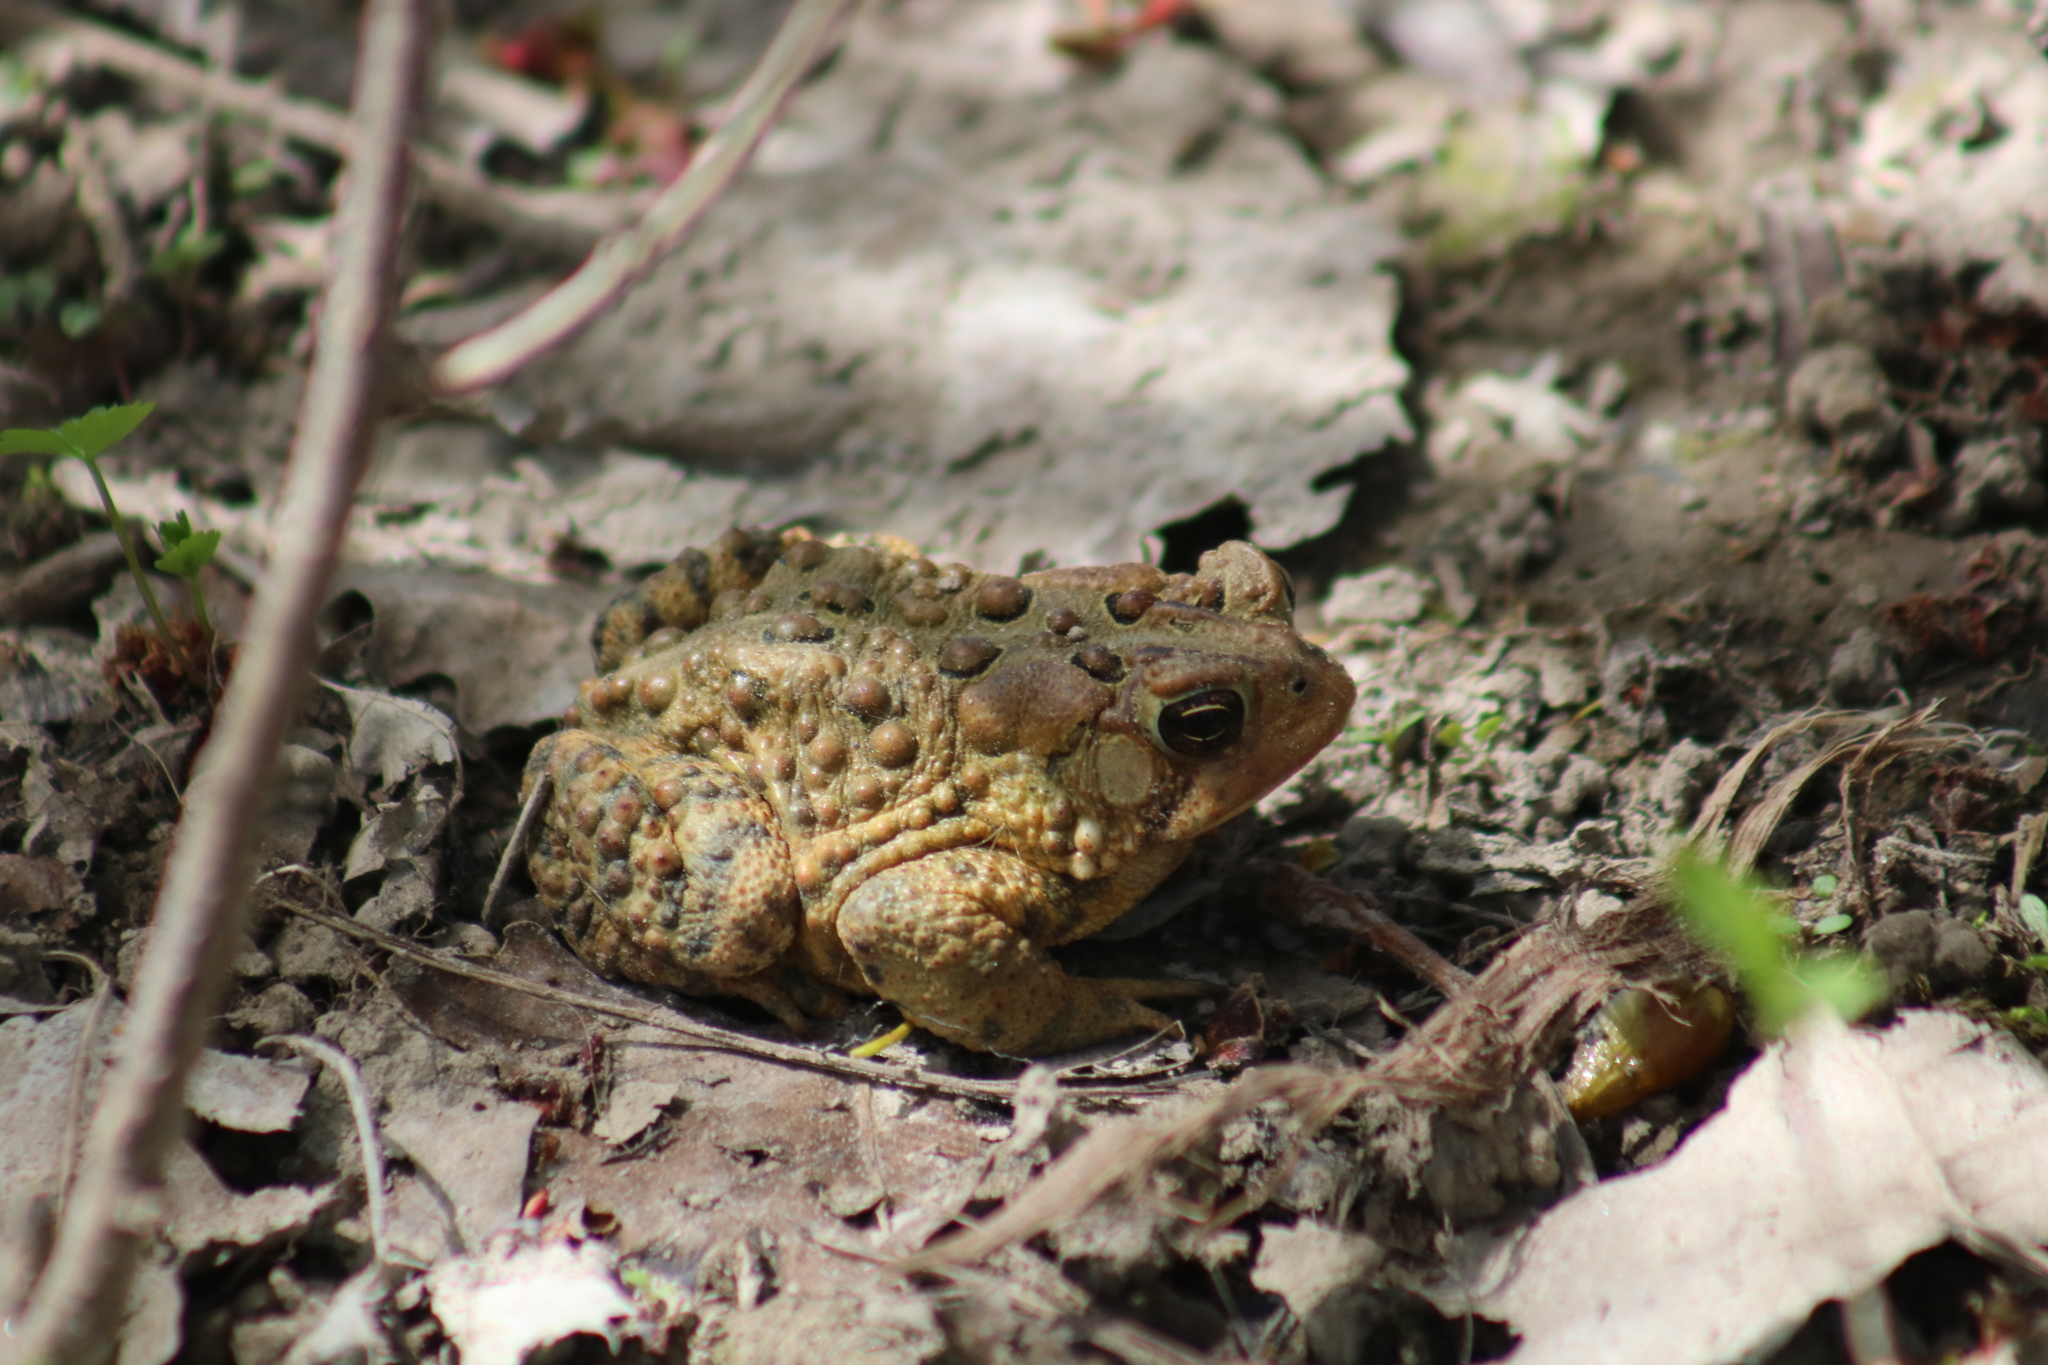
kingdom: Animalia
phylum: Chordata
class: Amphibia
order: Anura
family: Bufonidae
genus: Anaxyrus
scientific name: Anaxyrus americanus
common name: American toad
